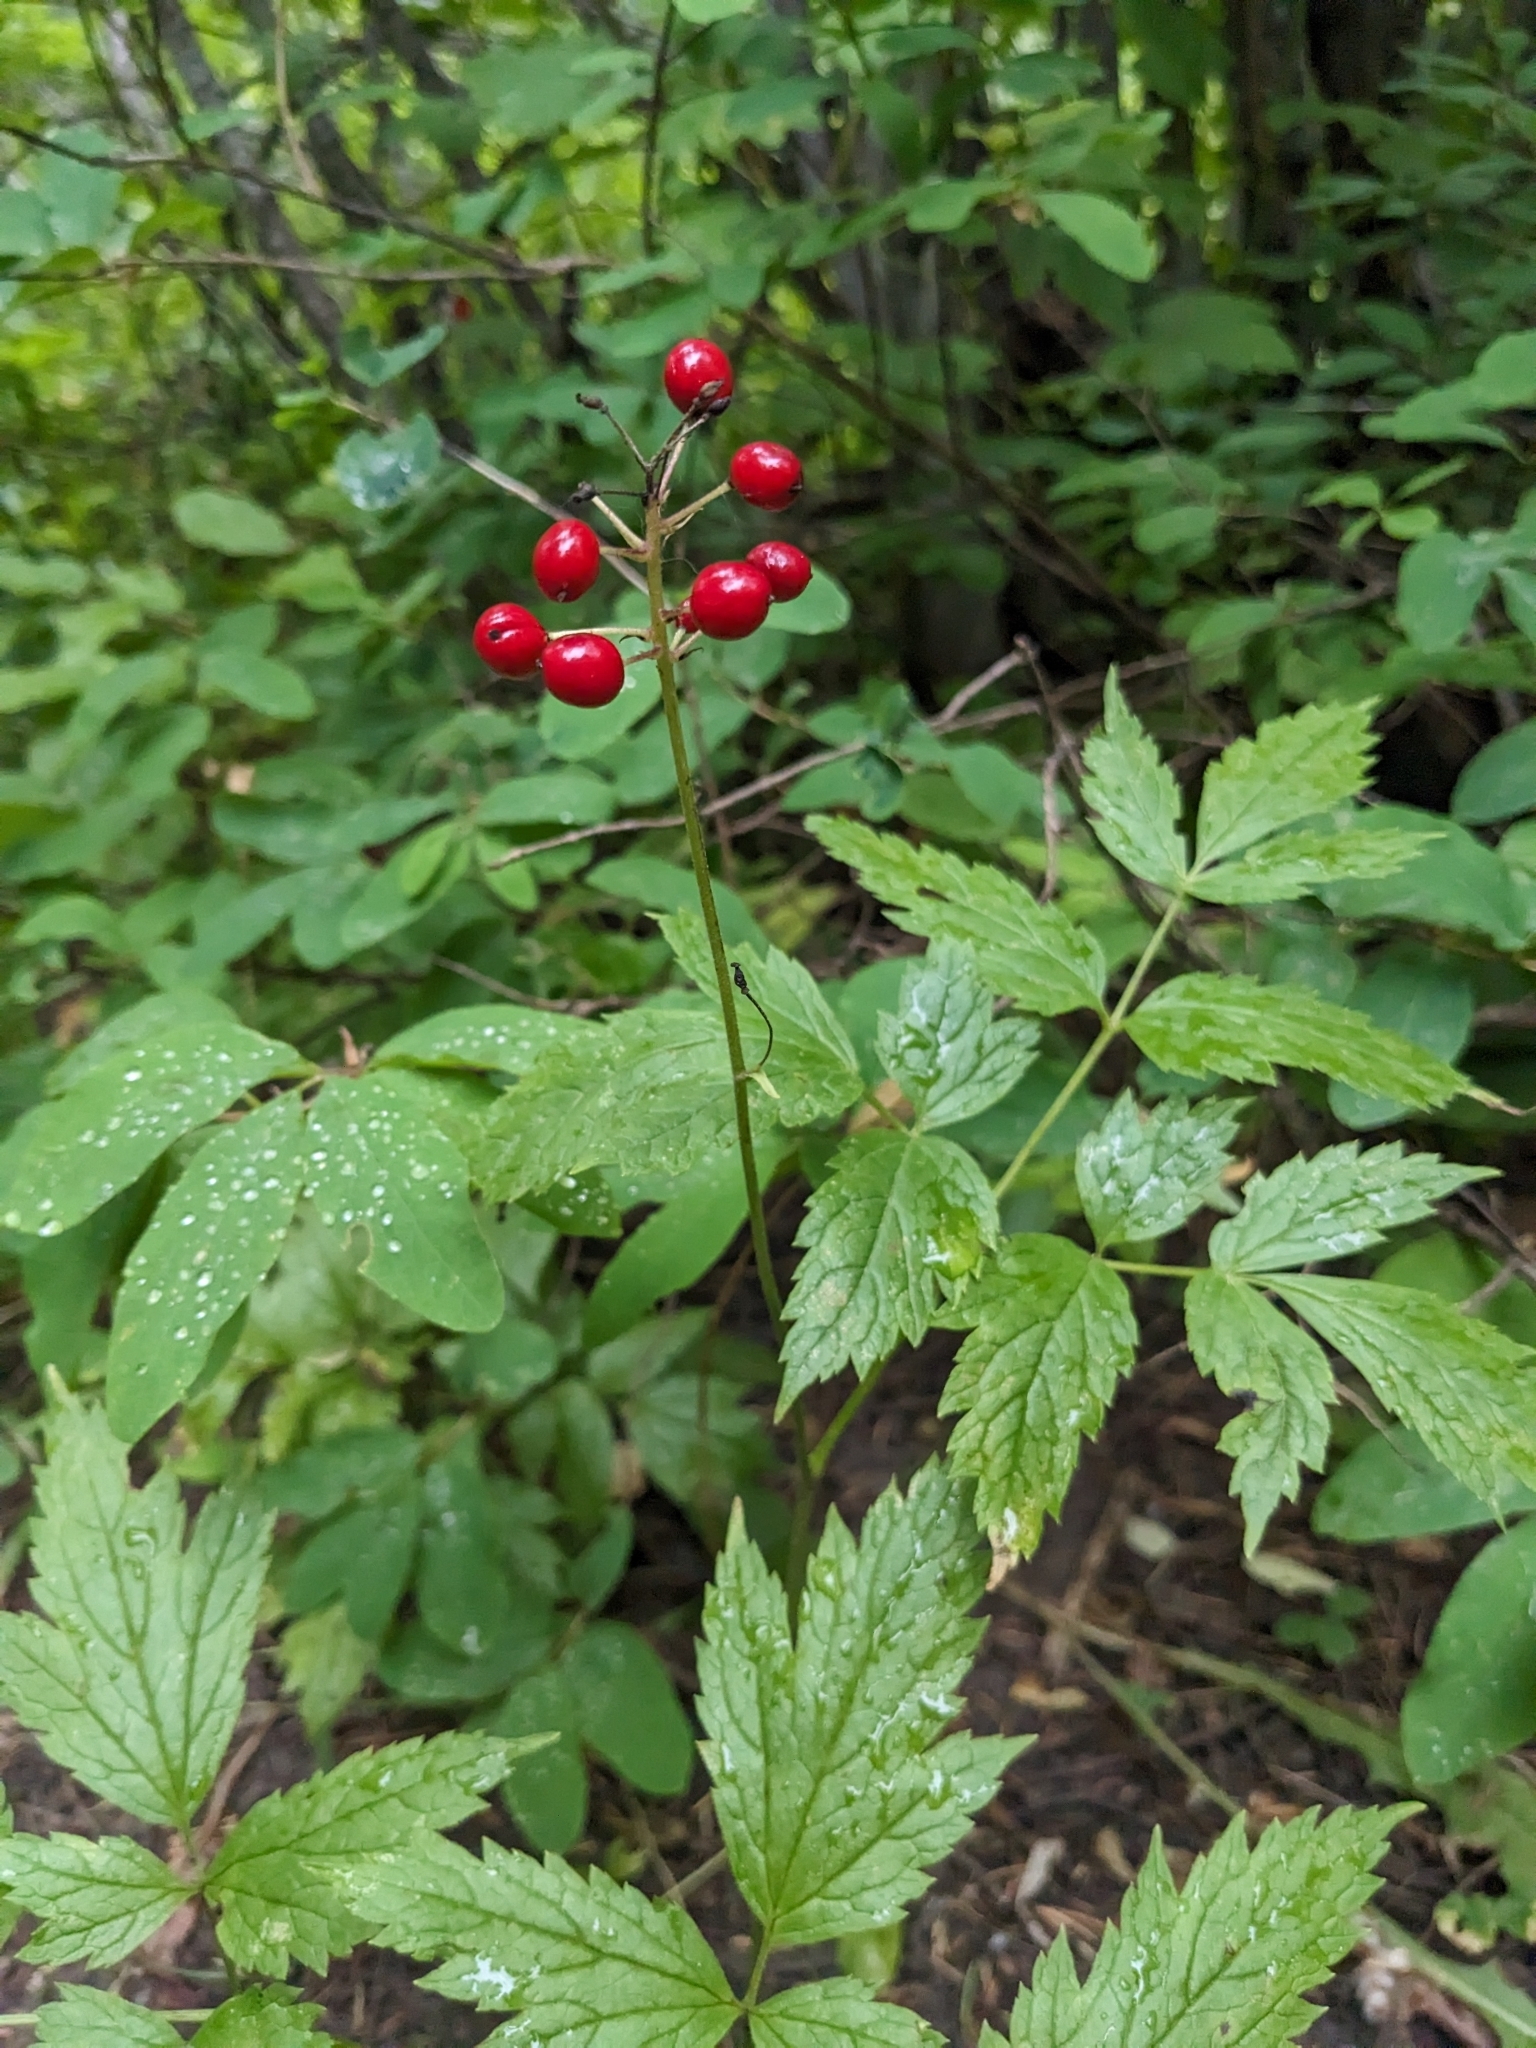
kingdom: Plantae
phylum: Tracheophyta
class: Magnoliopsida
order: Ranunculales
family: Ranunculaceae
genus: Actaea
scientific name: Actaea rubra
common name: Red baneberry
